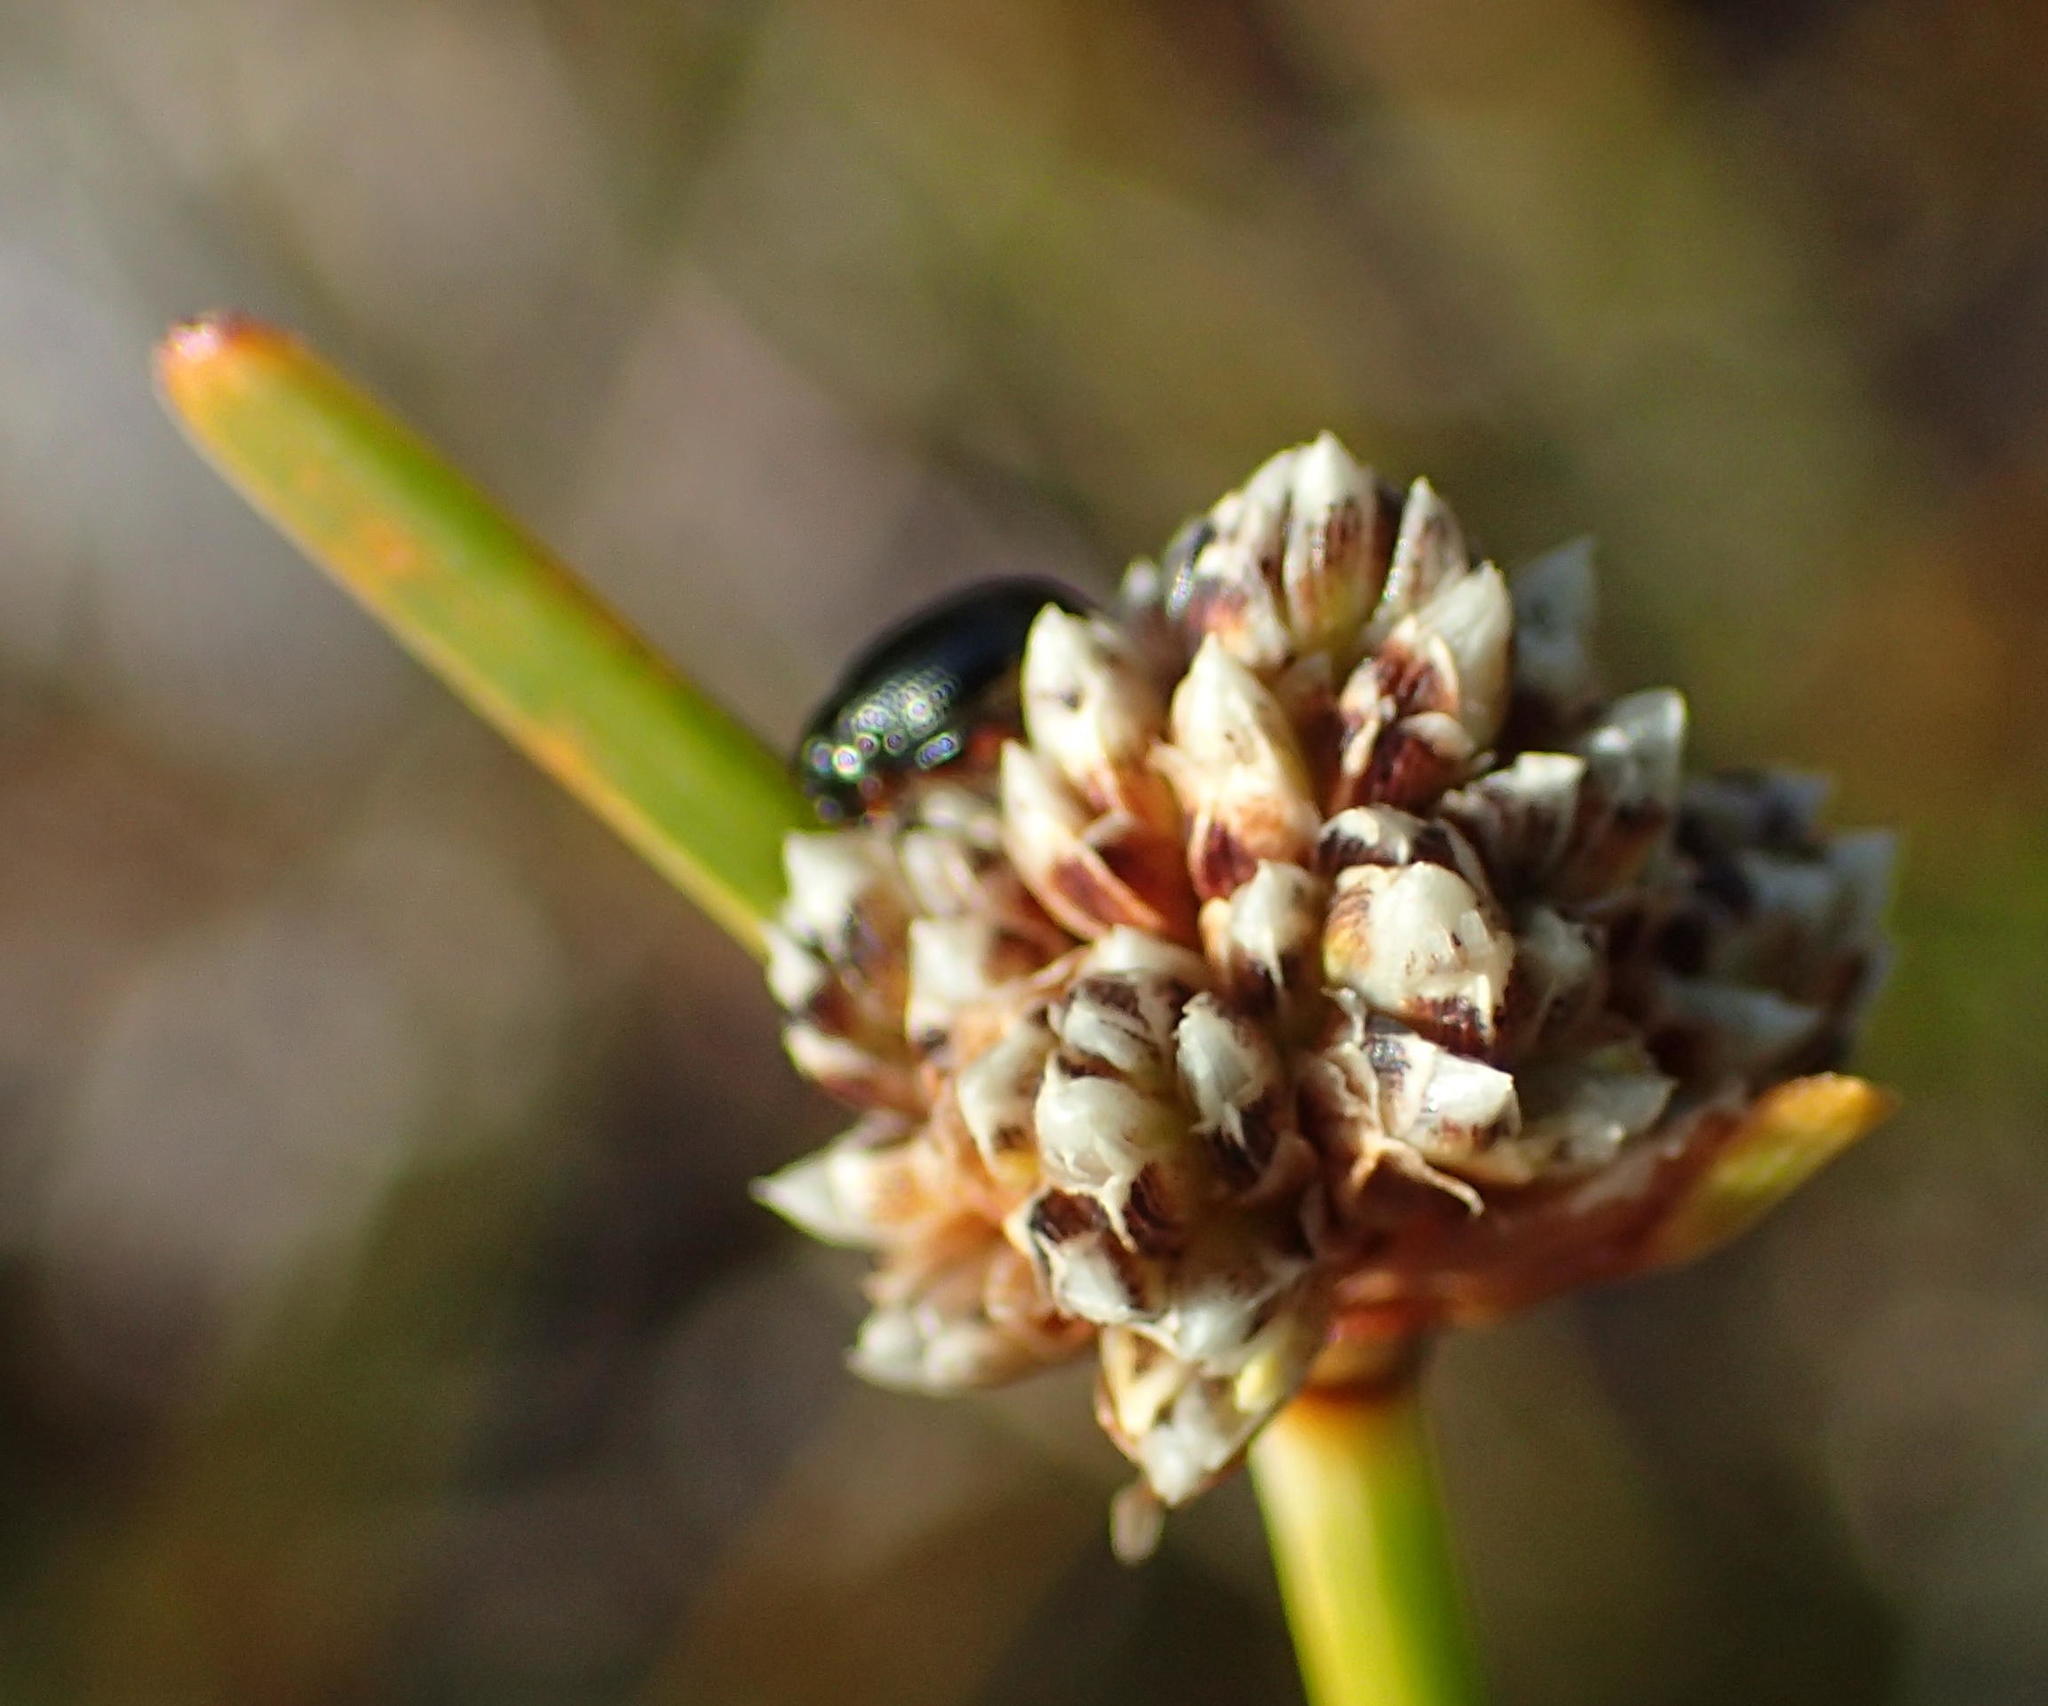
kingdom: Plantae
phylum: Tracheophyta
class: Liliopsida
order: Poales
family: Cyperaceae
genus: Ficinia
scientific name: Ficinia truncata
